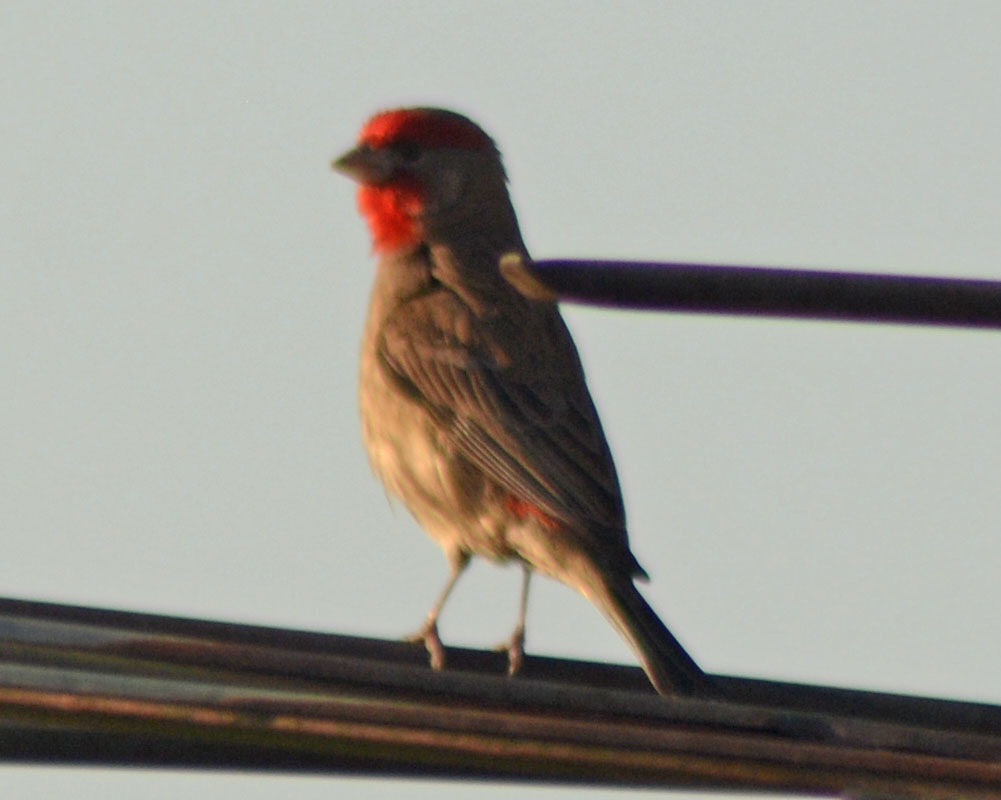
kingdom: Animalia
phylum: Chordata
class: Aves
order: Passeriformes
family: Fringillidae
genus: Haemorhous
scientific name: Haemorhous mexicanus
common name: House finch
